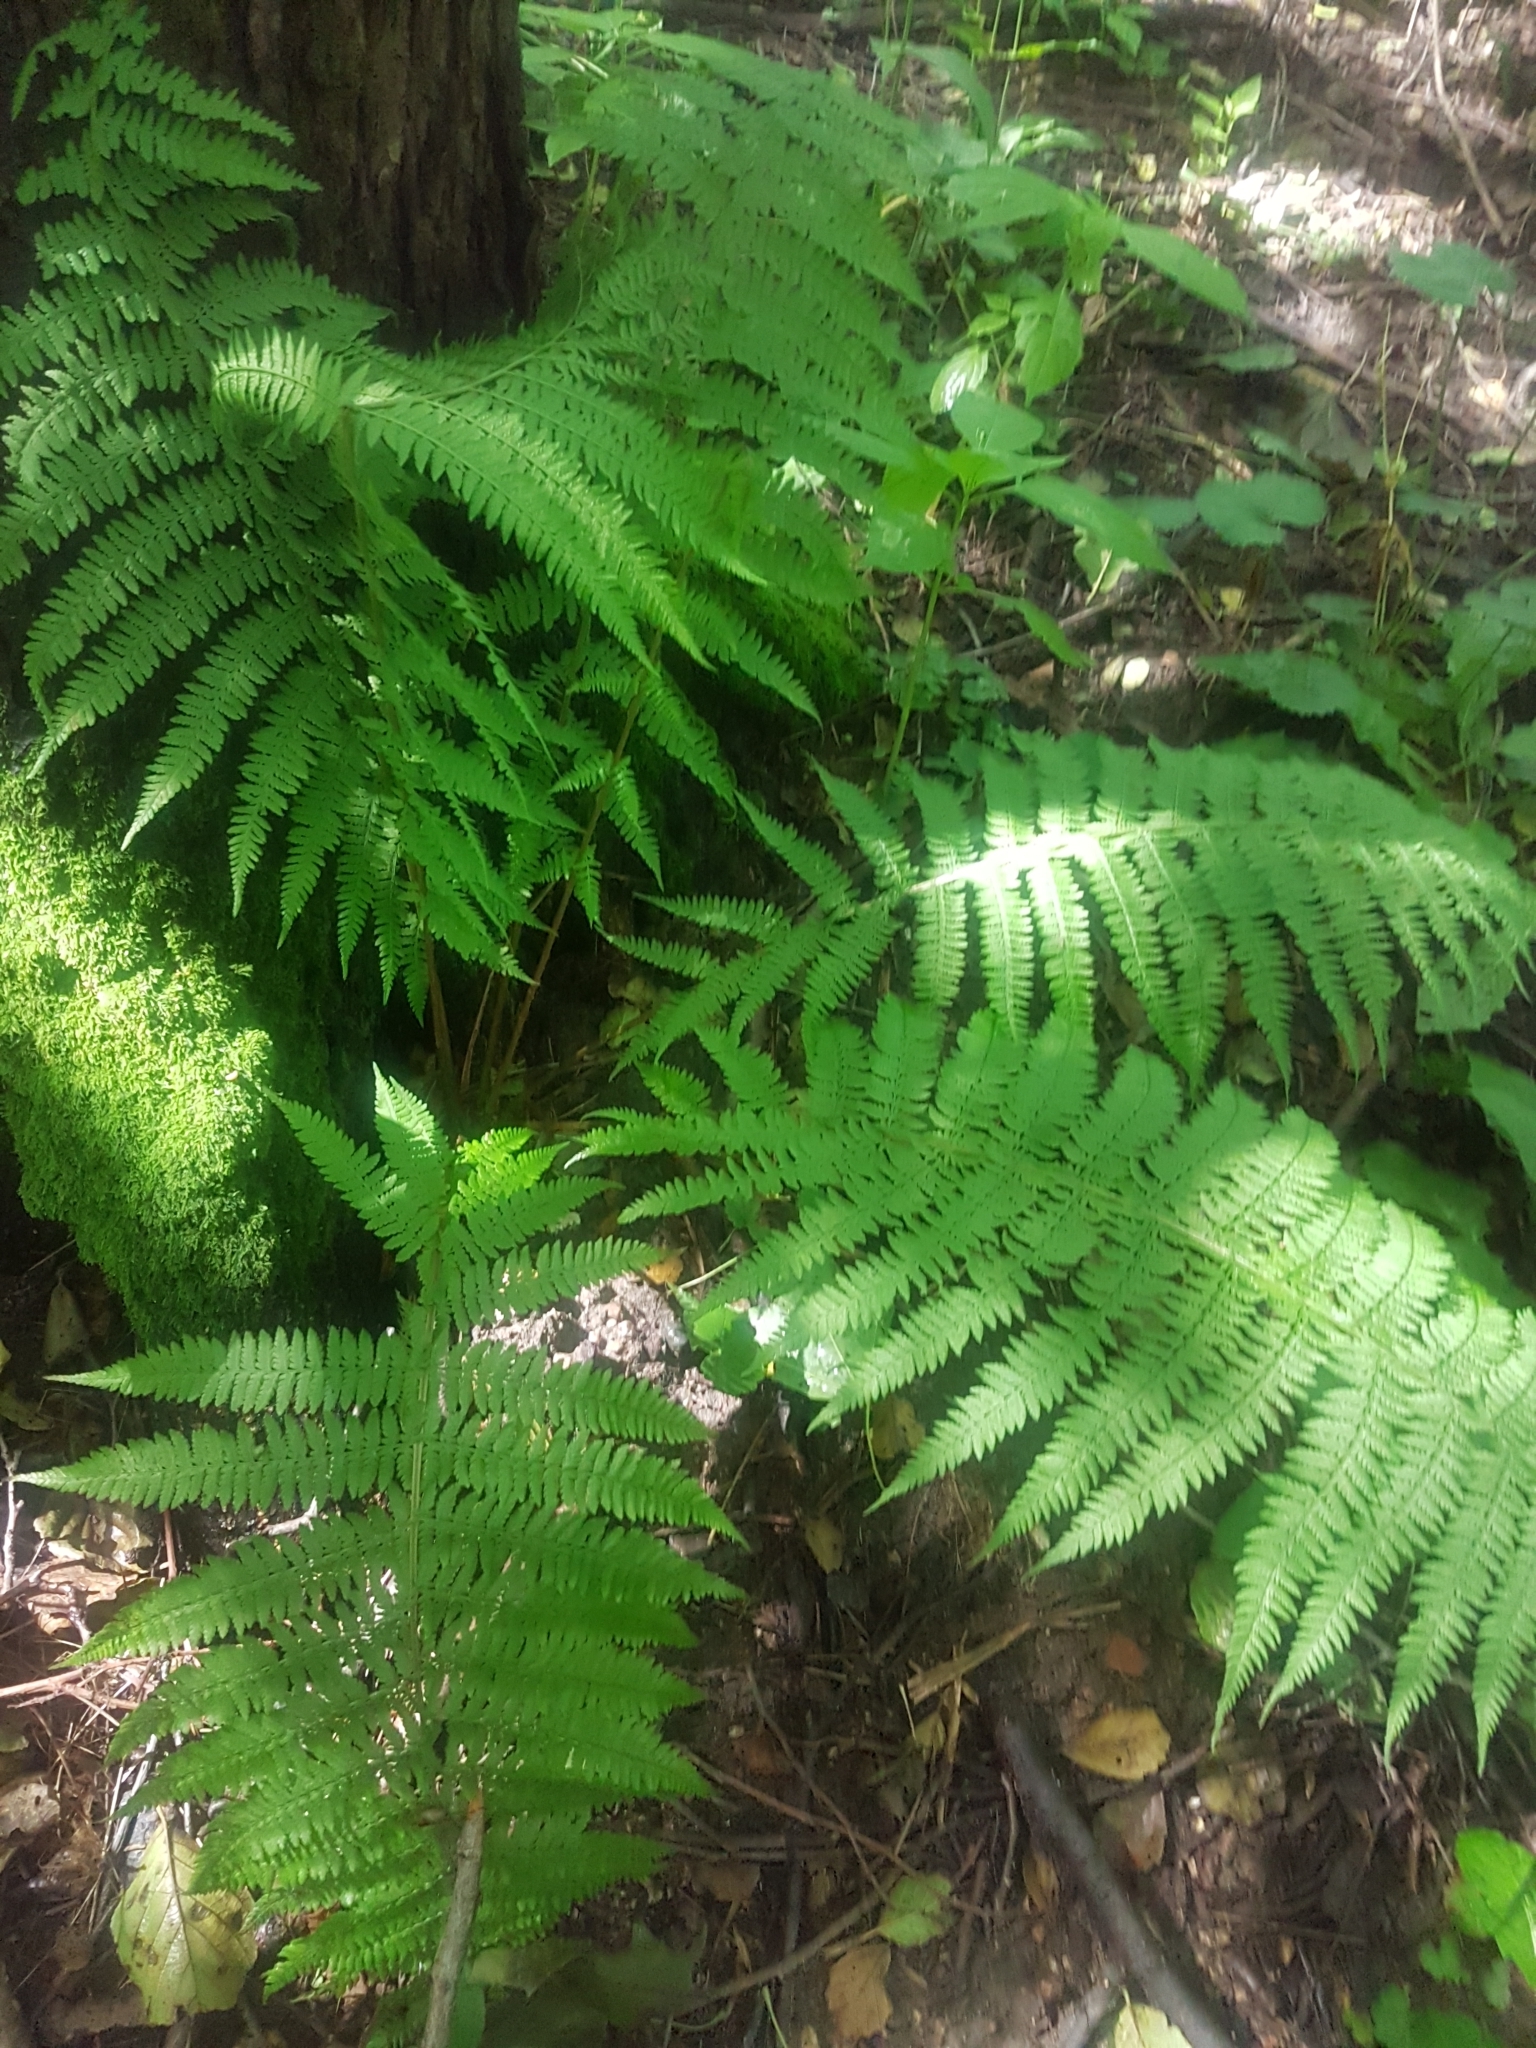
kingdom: Plantae
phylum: Tracheophyta
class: Polypodiopsida
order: Polypodiales
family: Athyriaceae
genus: Athyrium
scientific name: Athyrium filix-femina
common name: Lady fern
